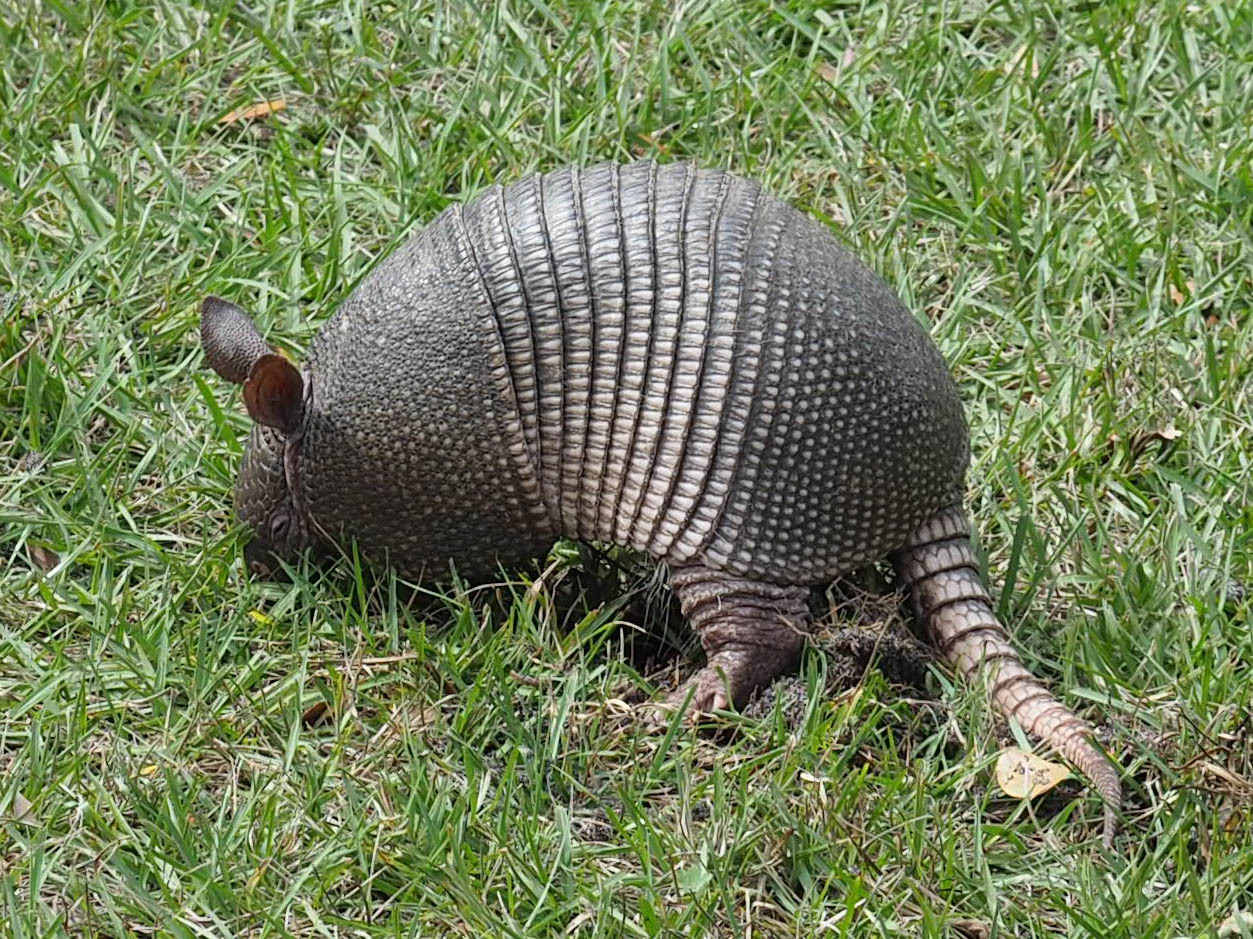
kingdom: Animalia
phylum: Chordata
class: Mammalia
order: Cingulata
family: Dasypodidae
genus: Dasypus
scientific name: Dasypus novemcinctus
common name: Nine-banded armadillo
